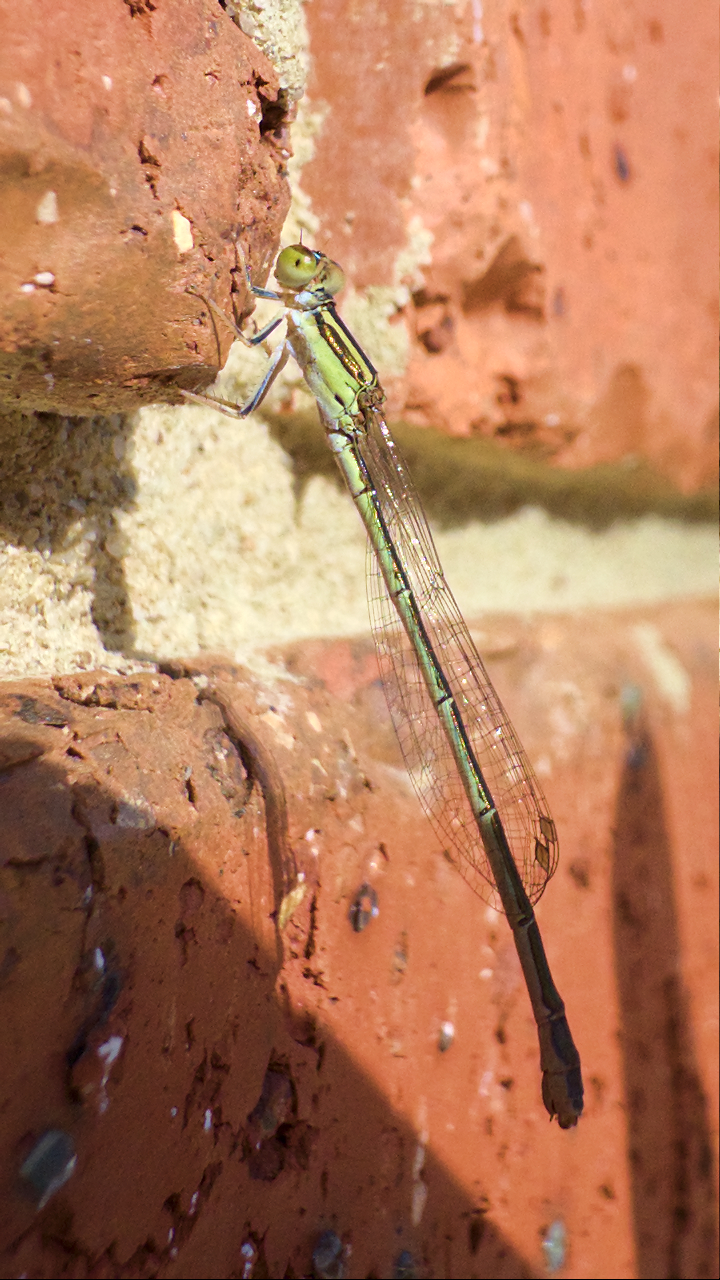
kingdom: Animalia
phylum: Arthropoda
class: Insecta
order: Odonata
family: Coenagrionidae
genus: Ischnura
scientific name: Ischnura aurora
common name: Gossamer damselfly
